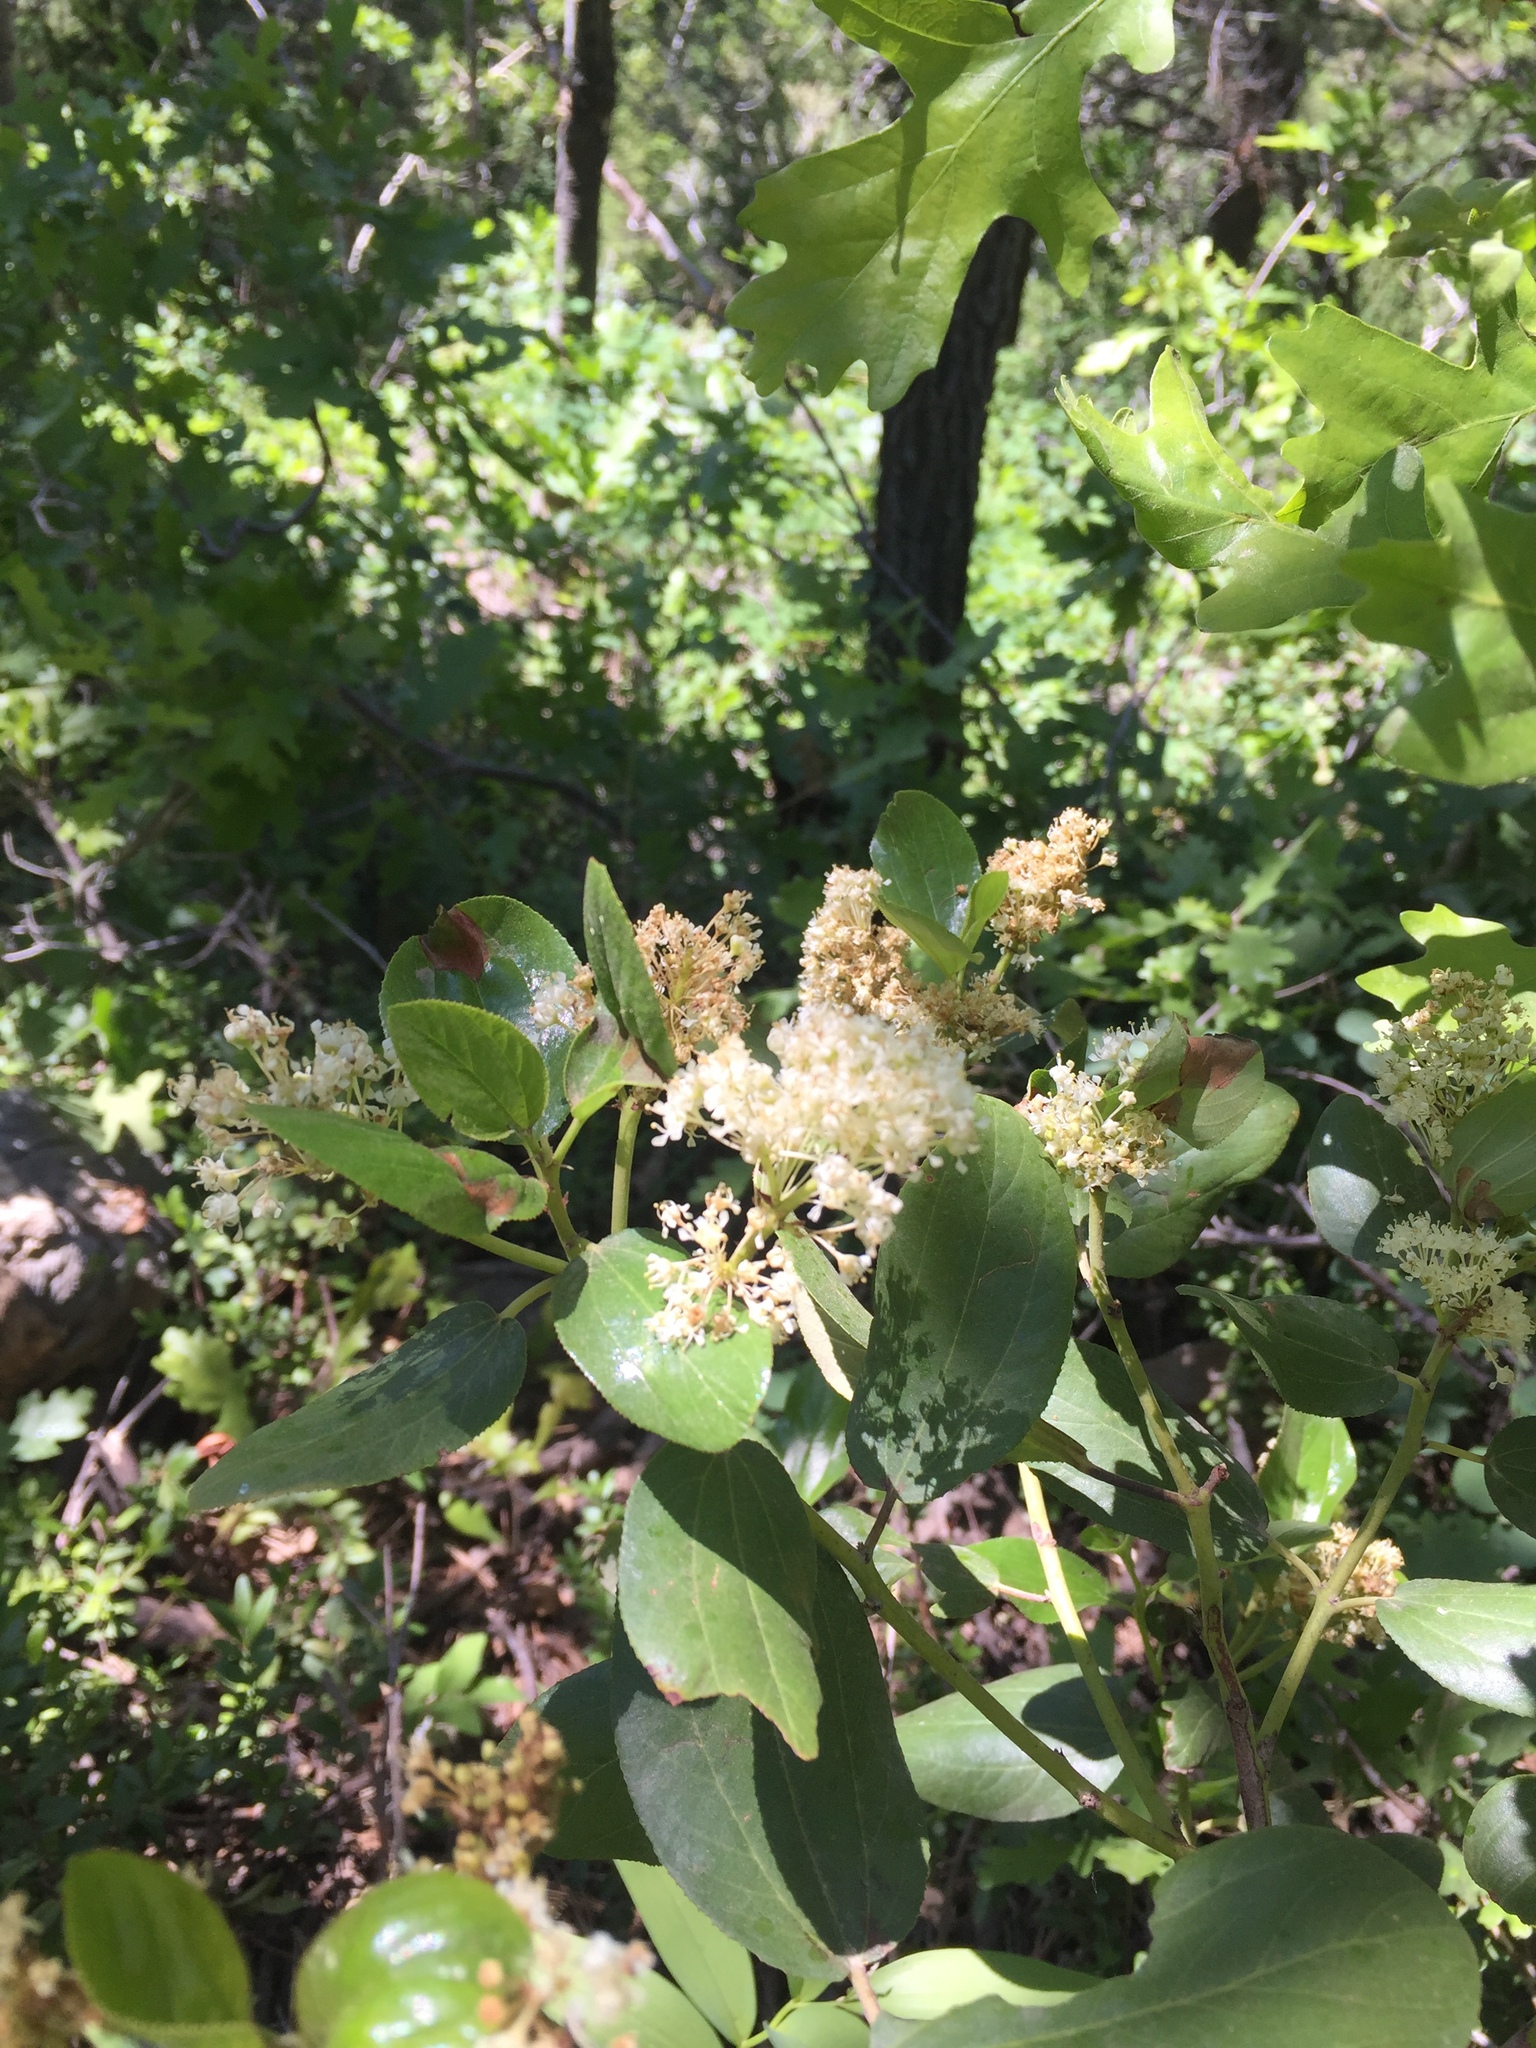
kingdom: Plantae
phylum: Tracheophyta
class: Magnoliopsida
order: Rosales
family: Rhamnaceae
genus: Ceanothus
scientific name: Ceanothus velutinus
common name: Snowbrush
